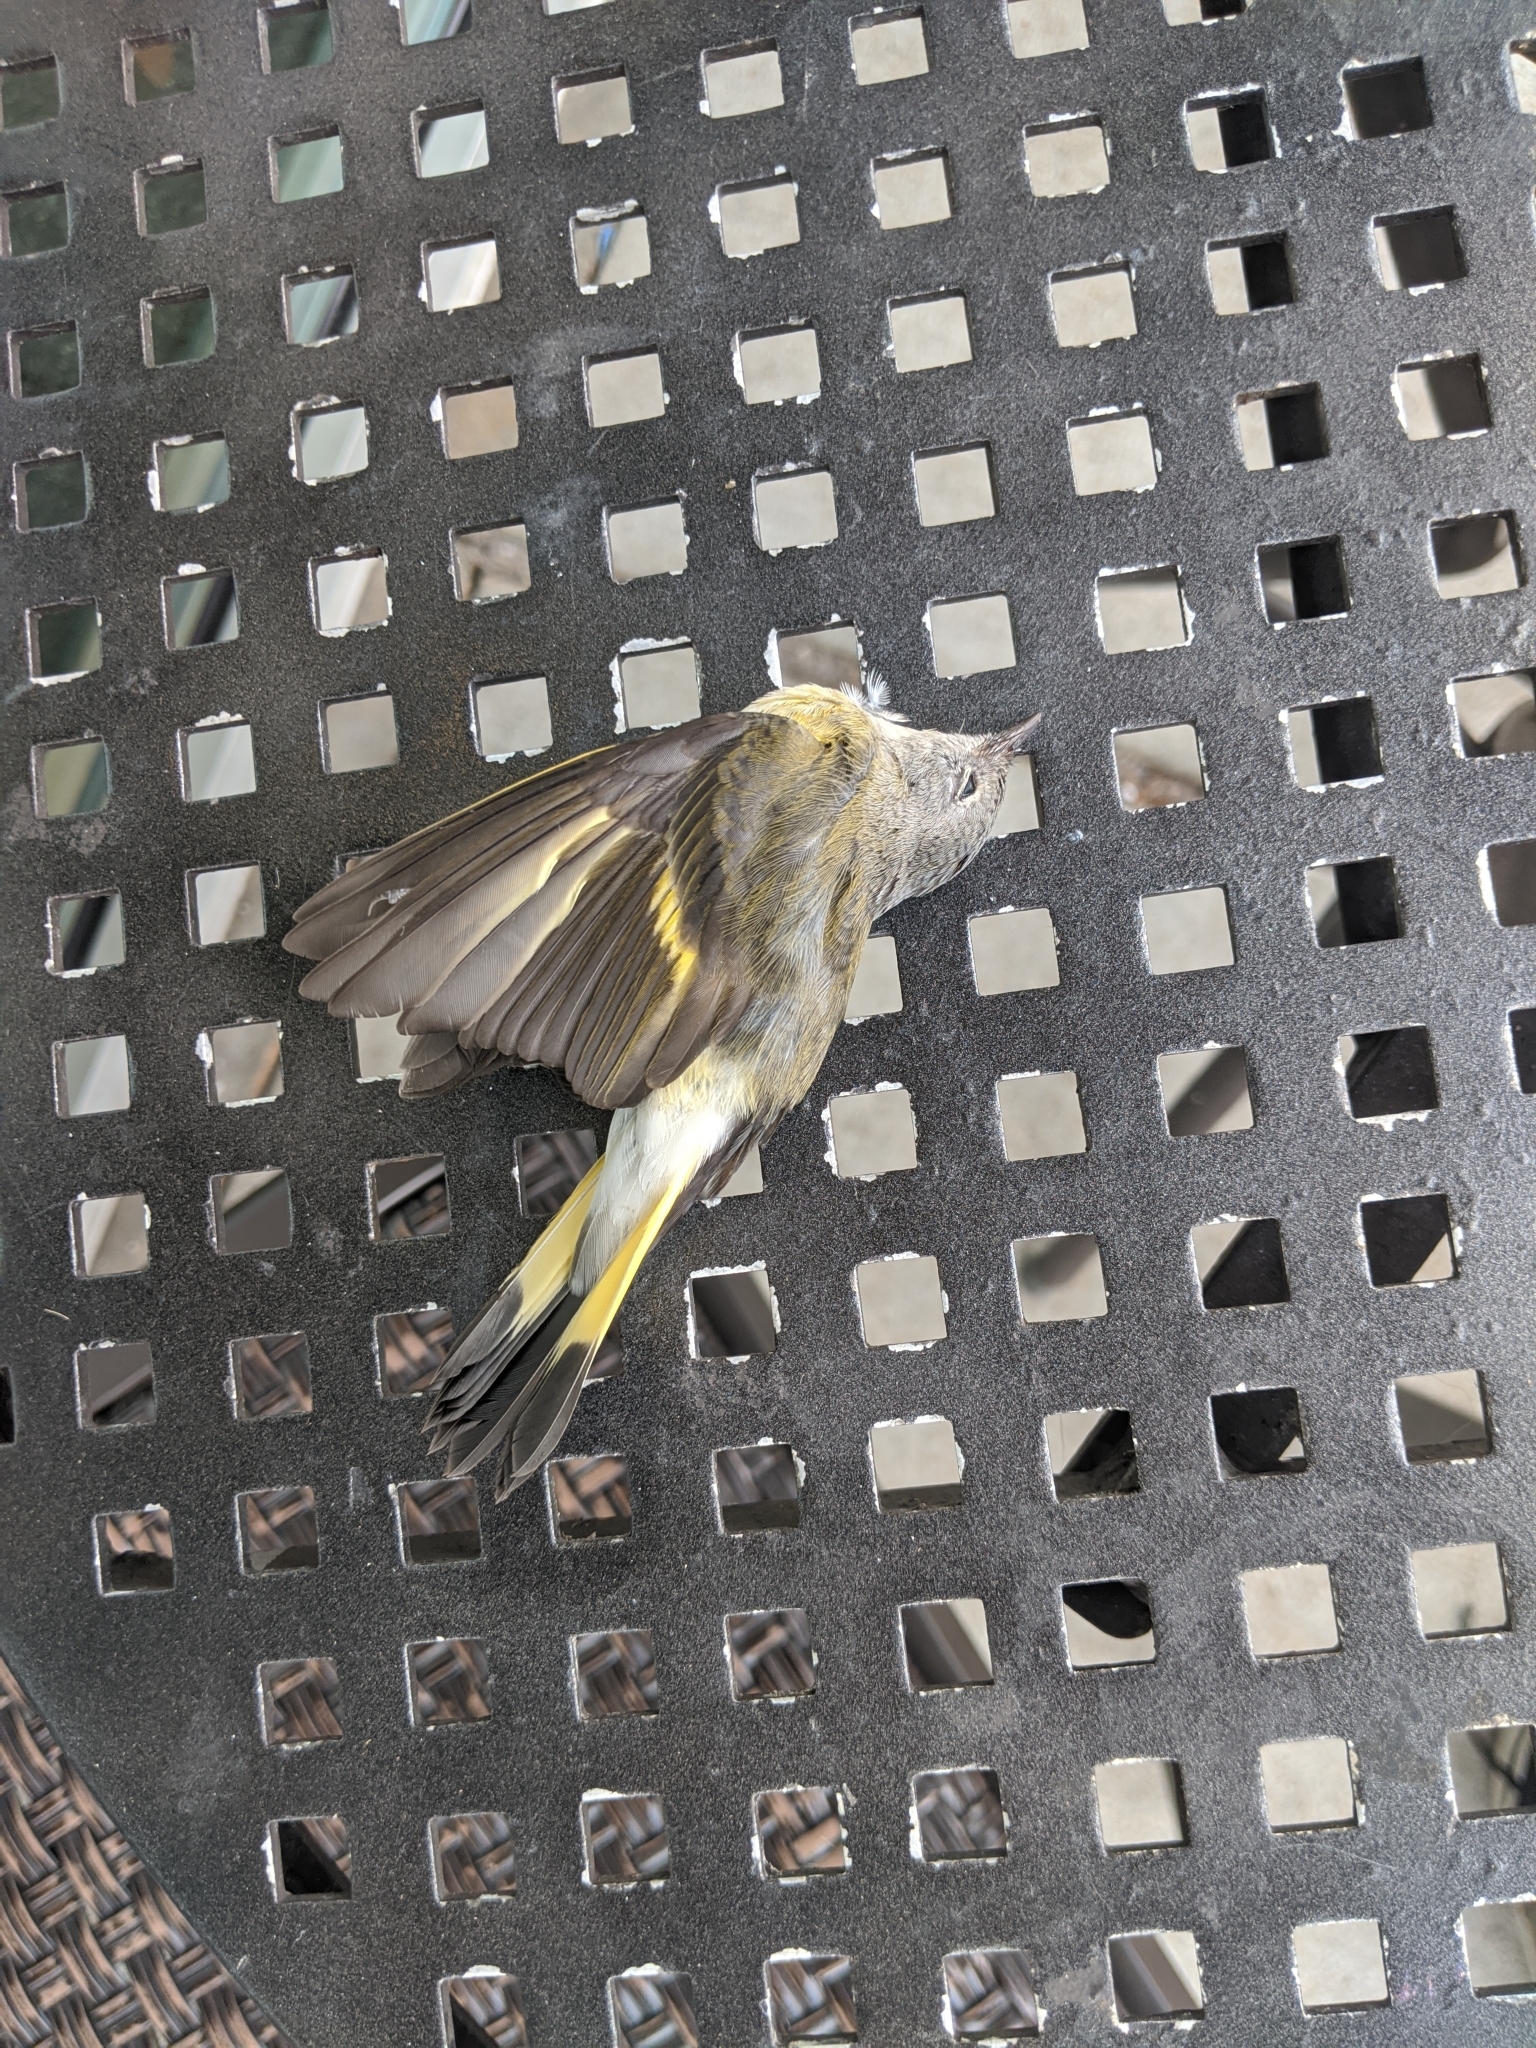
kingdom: Animalia
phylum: Chordata
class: Aves
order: Passeriformes
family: Parulidae
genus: Setophaga
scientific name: Setophaga ruticilla
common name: American redstart
